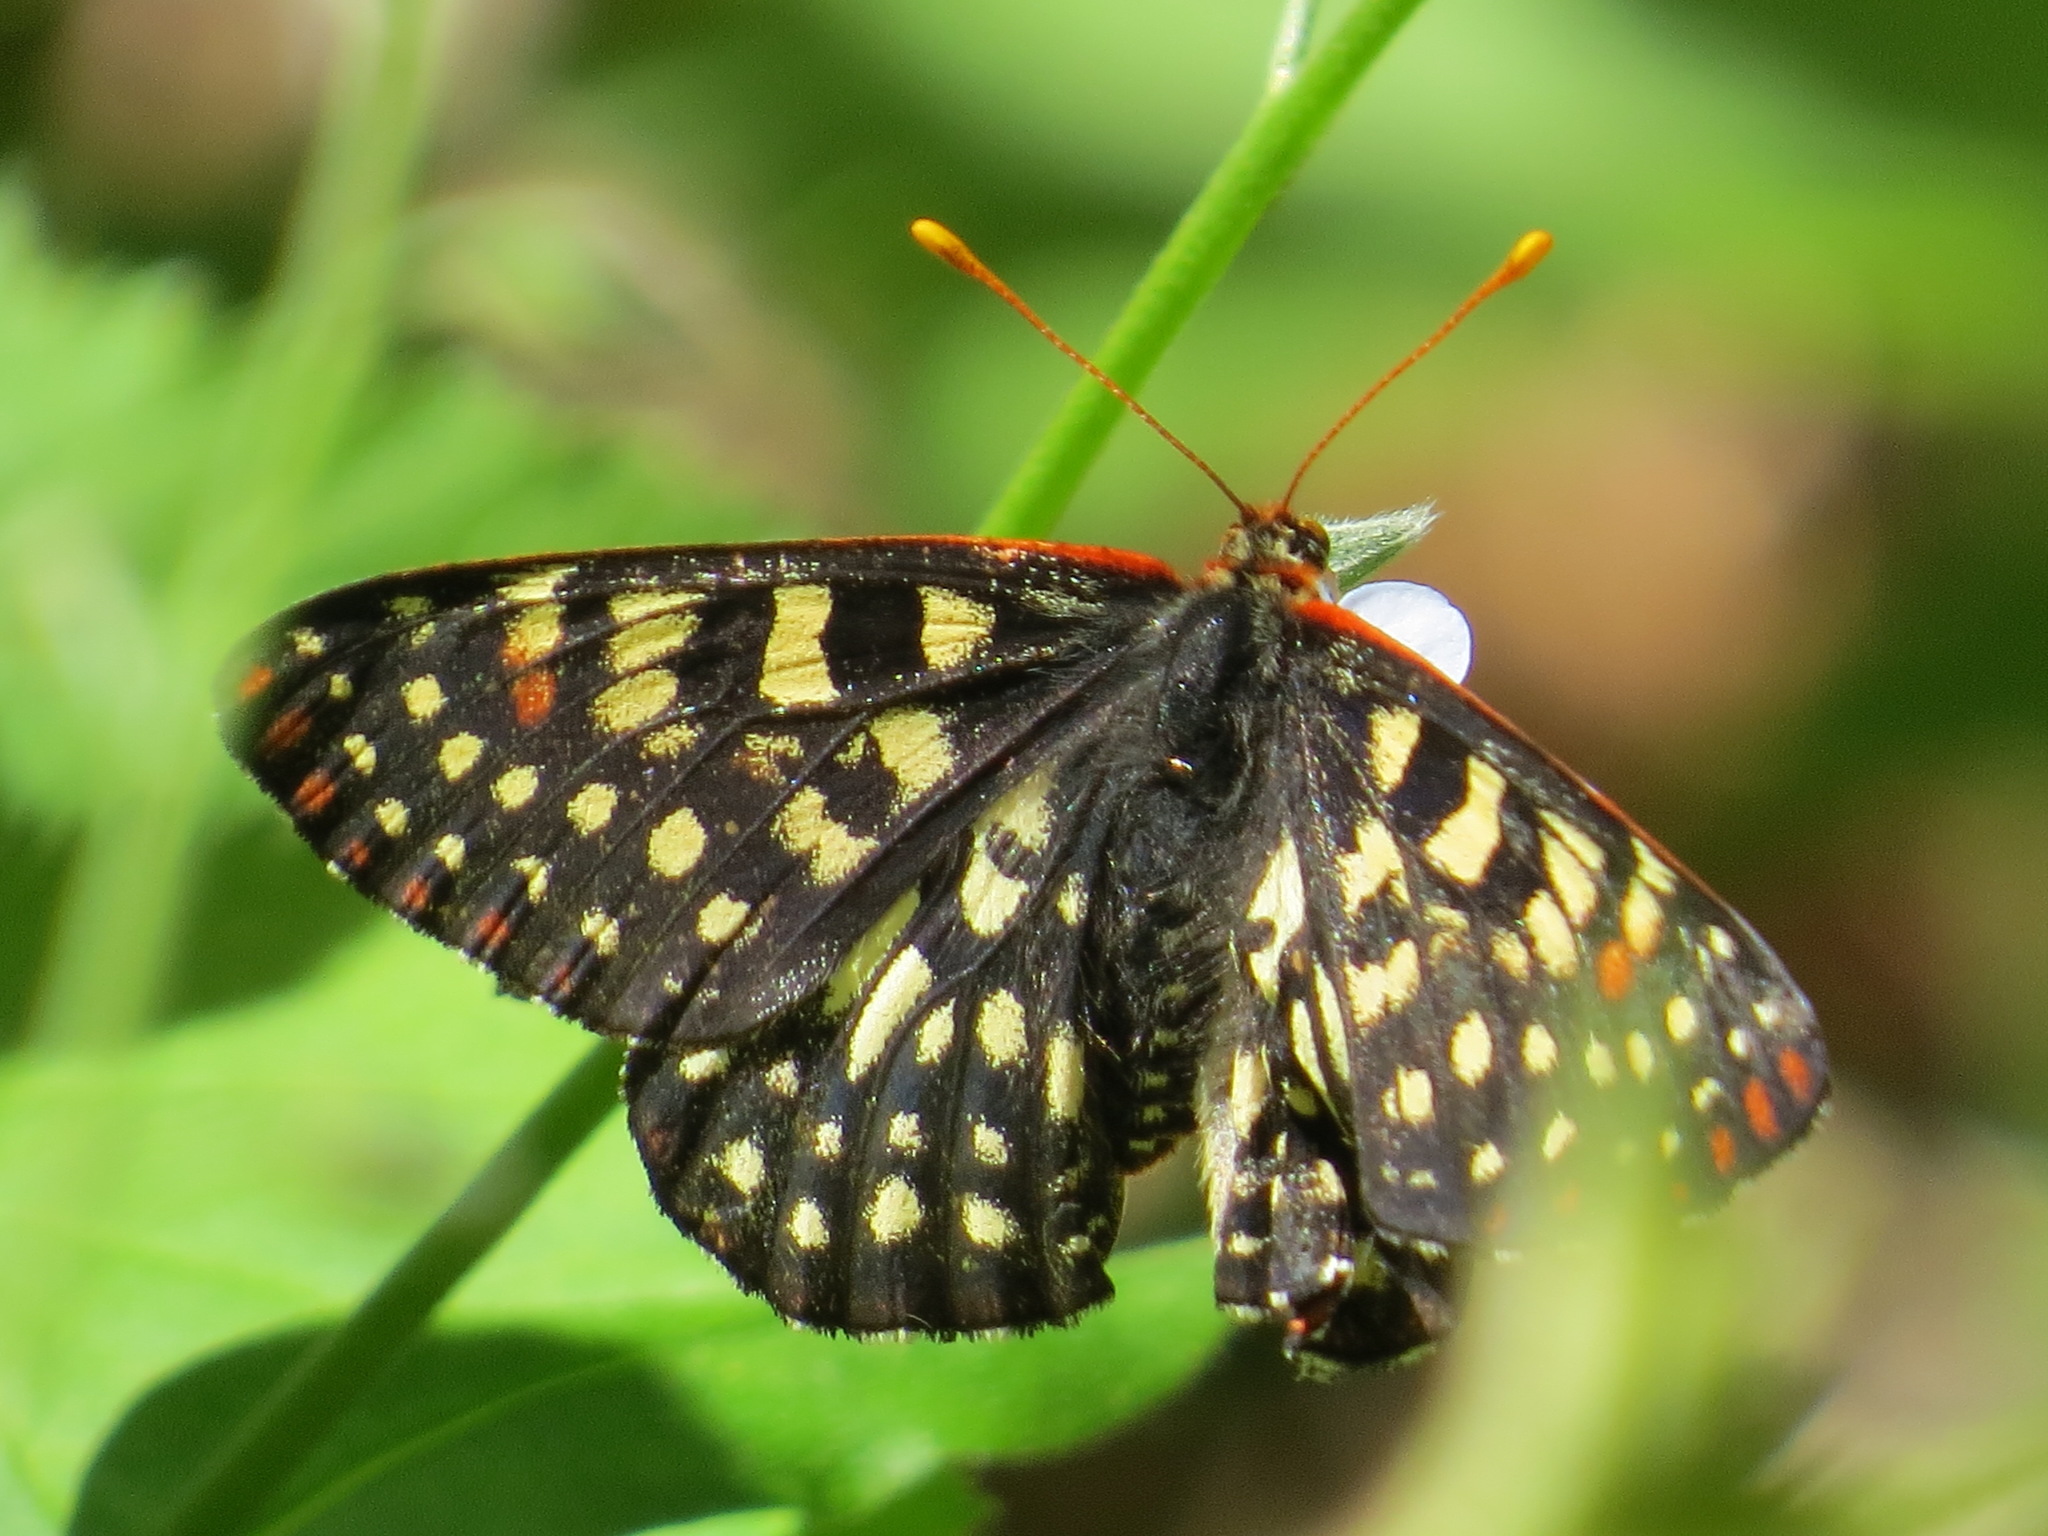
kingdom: Animalia
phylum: Arthropoda
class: Insecta
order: Lepidoptera
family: Nymphalidae
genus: Occidryas
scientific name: Occidryas chalcedona
